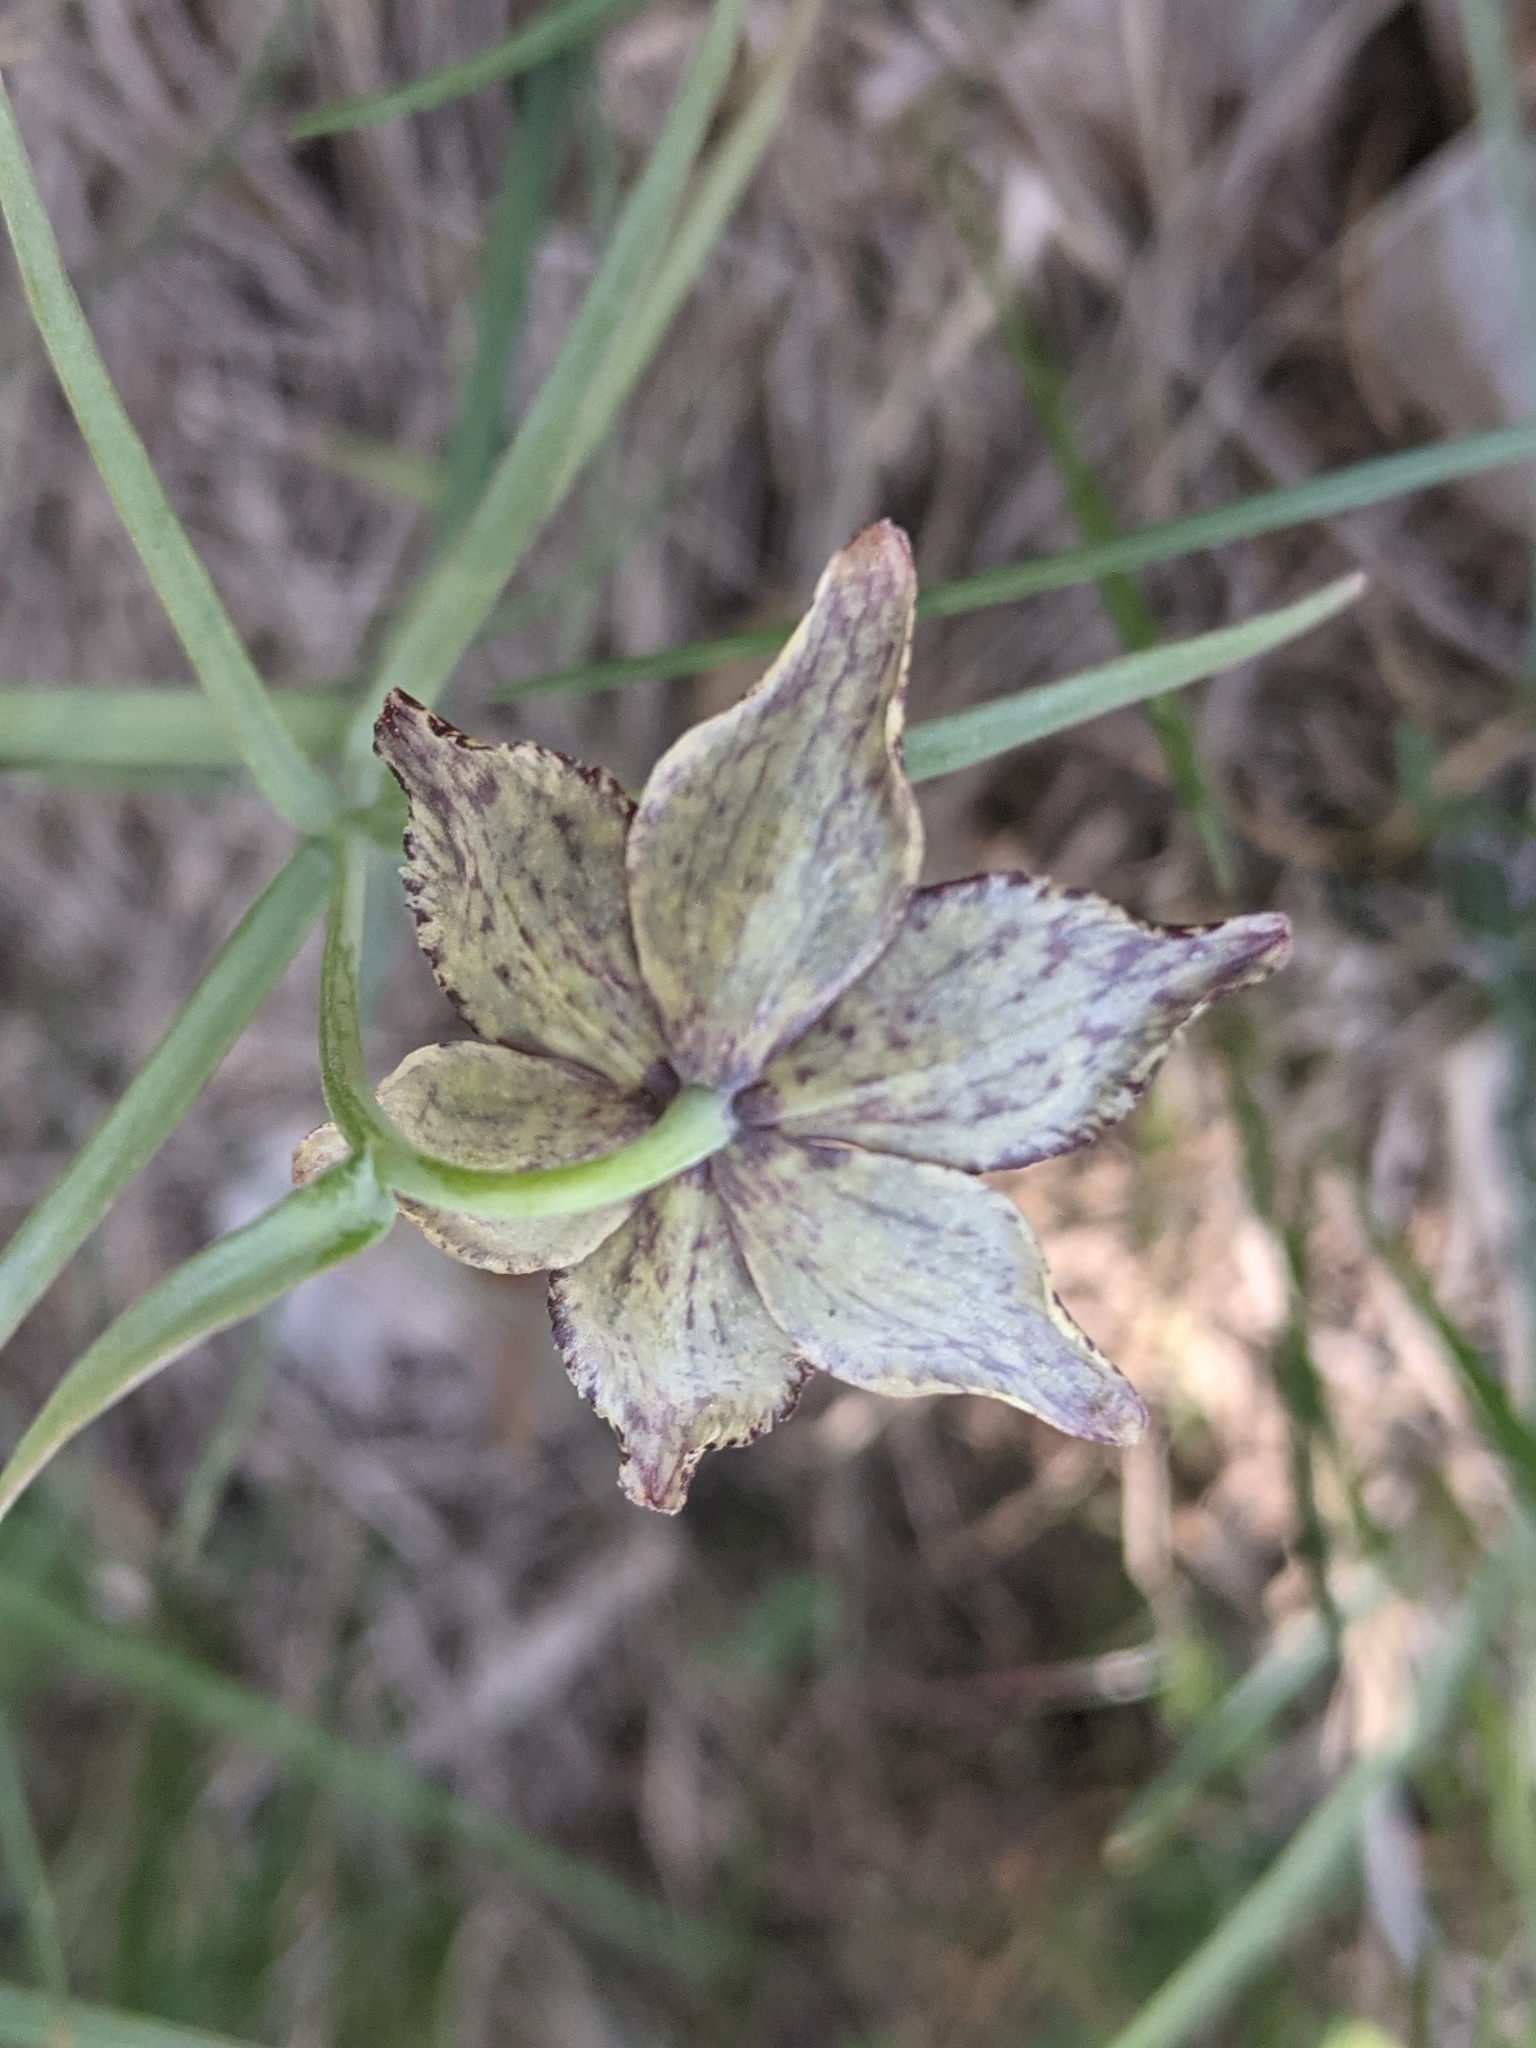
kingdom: Plantae
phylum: Tracheophyta
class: Liliopsida
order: Liliales
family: Liliaceae
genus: Fritillaria
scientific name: Fritillaria atropurpurea
